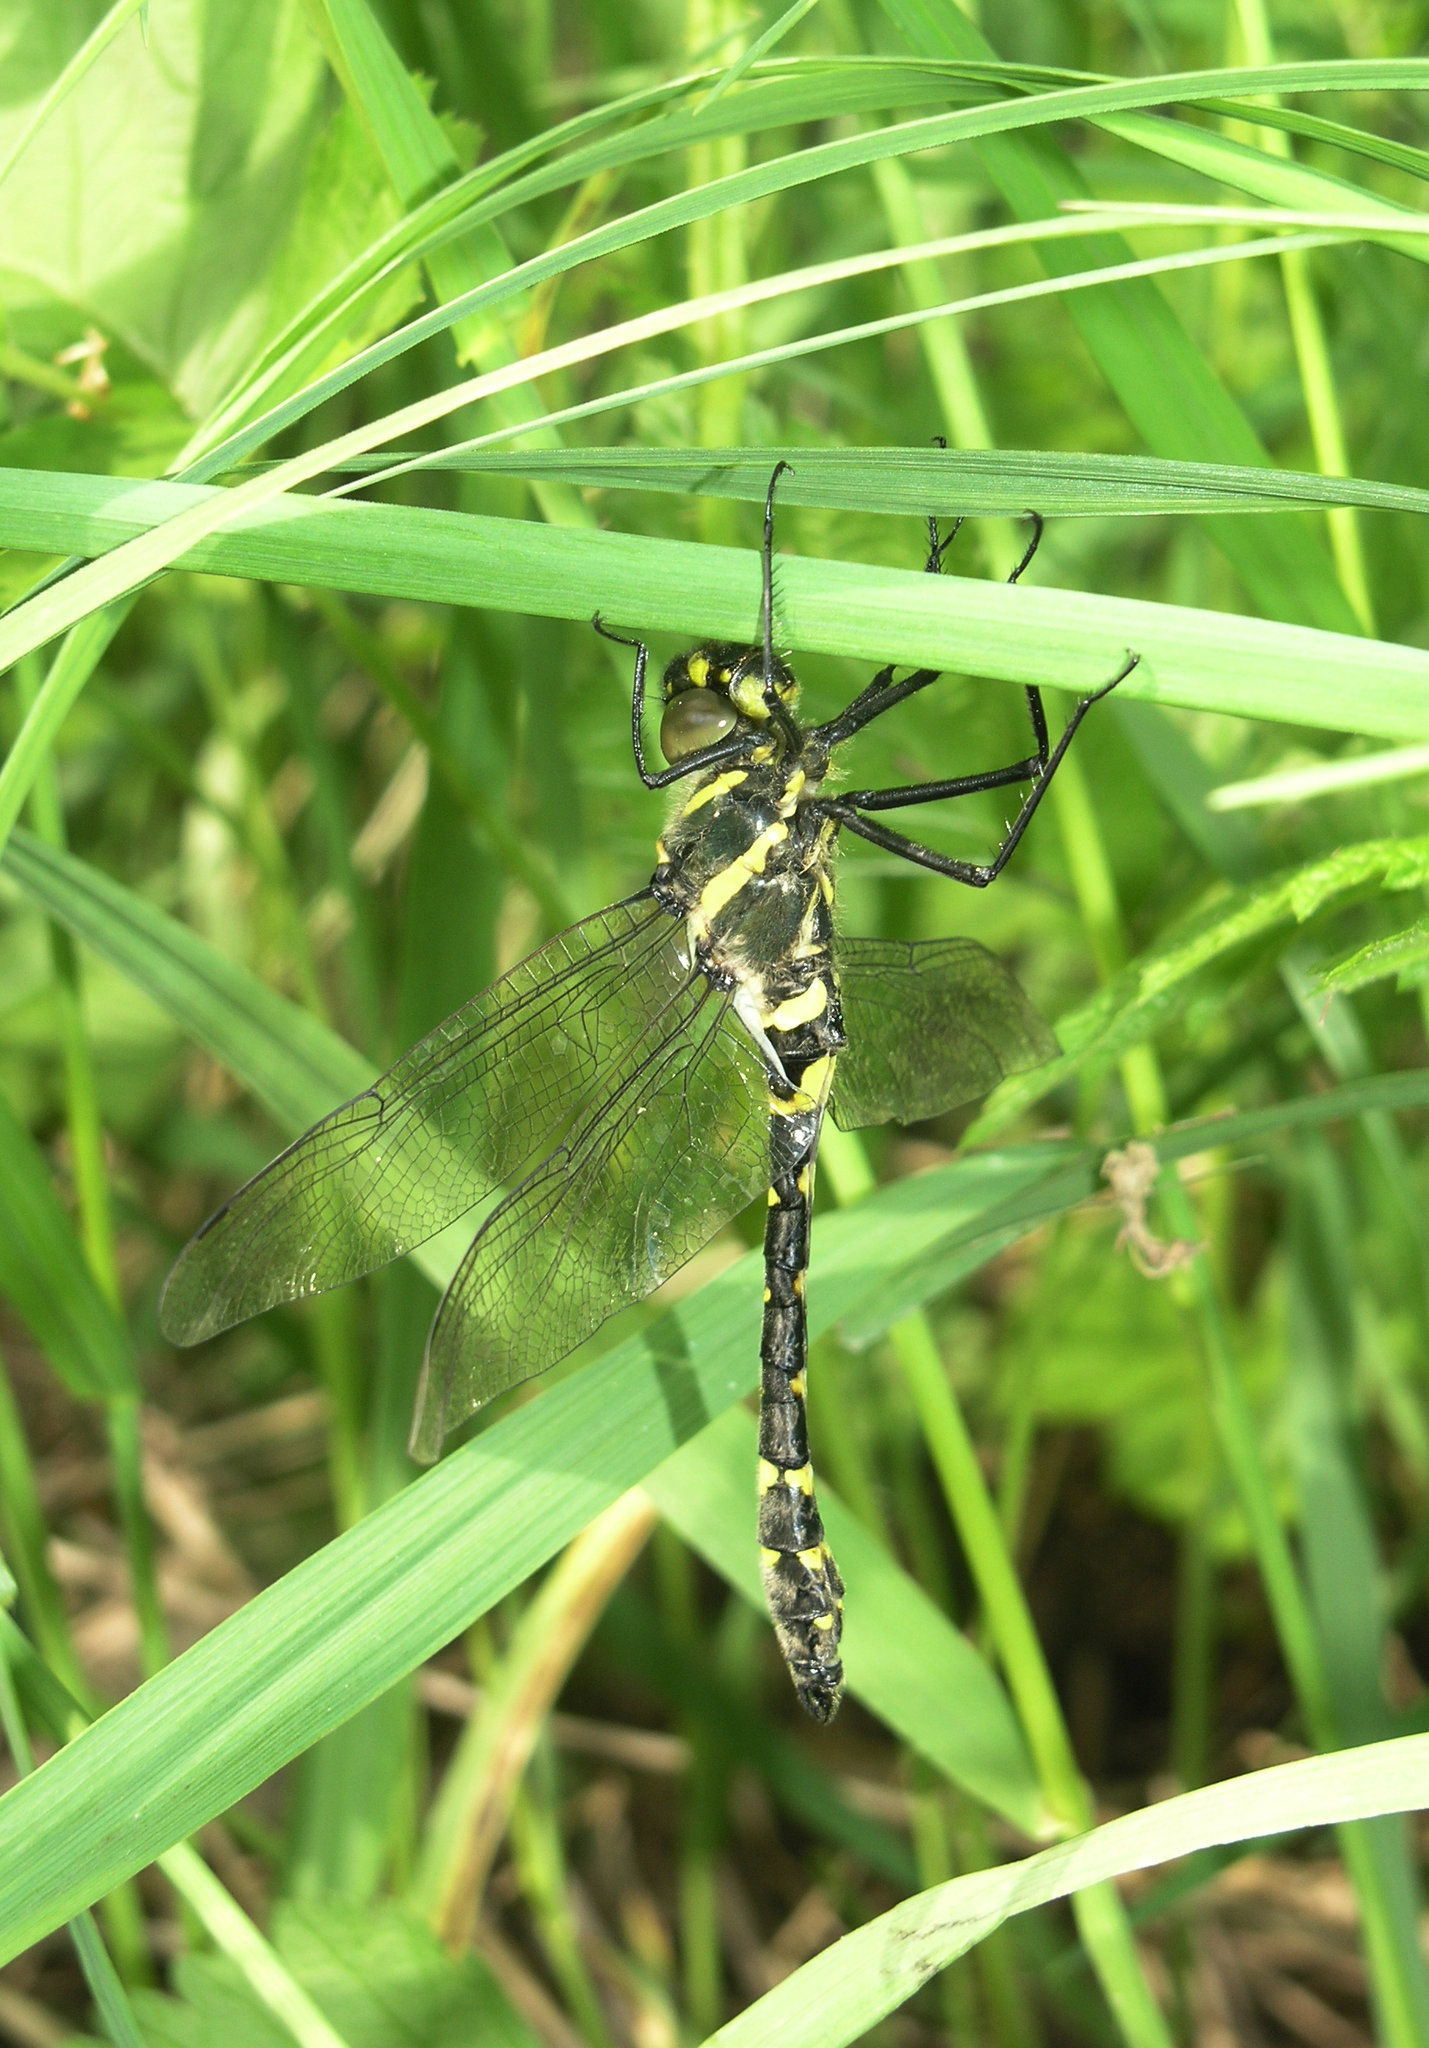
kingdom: Animalia
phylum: Arthropoda
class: Insecta
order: Odonata
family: Macromiidae
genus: Macromia
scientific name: Macromia amphigena
